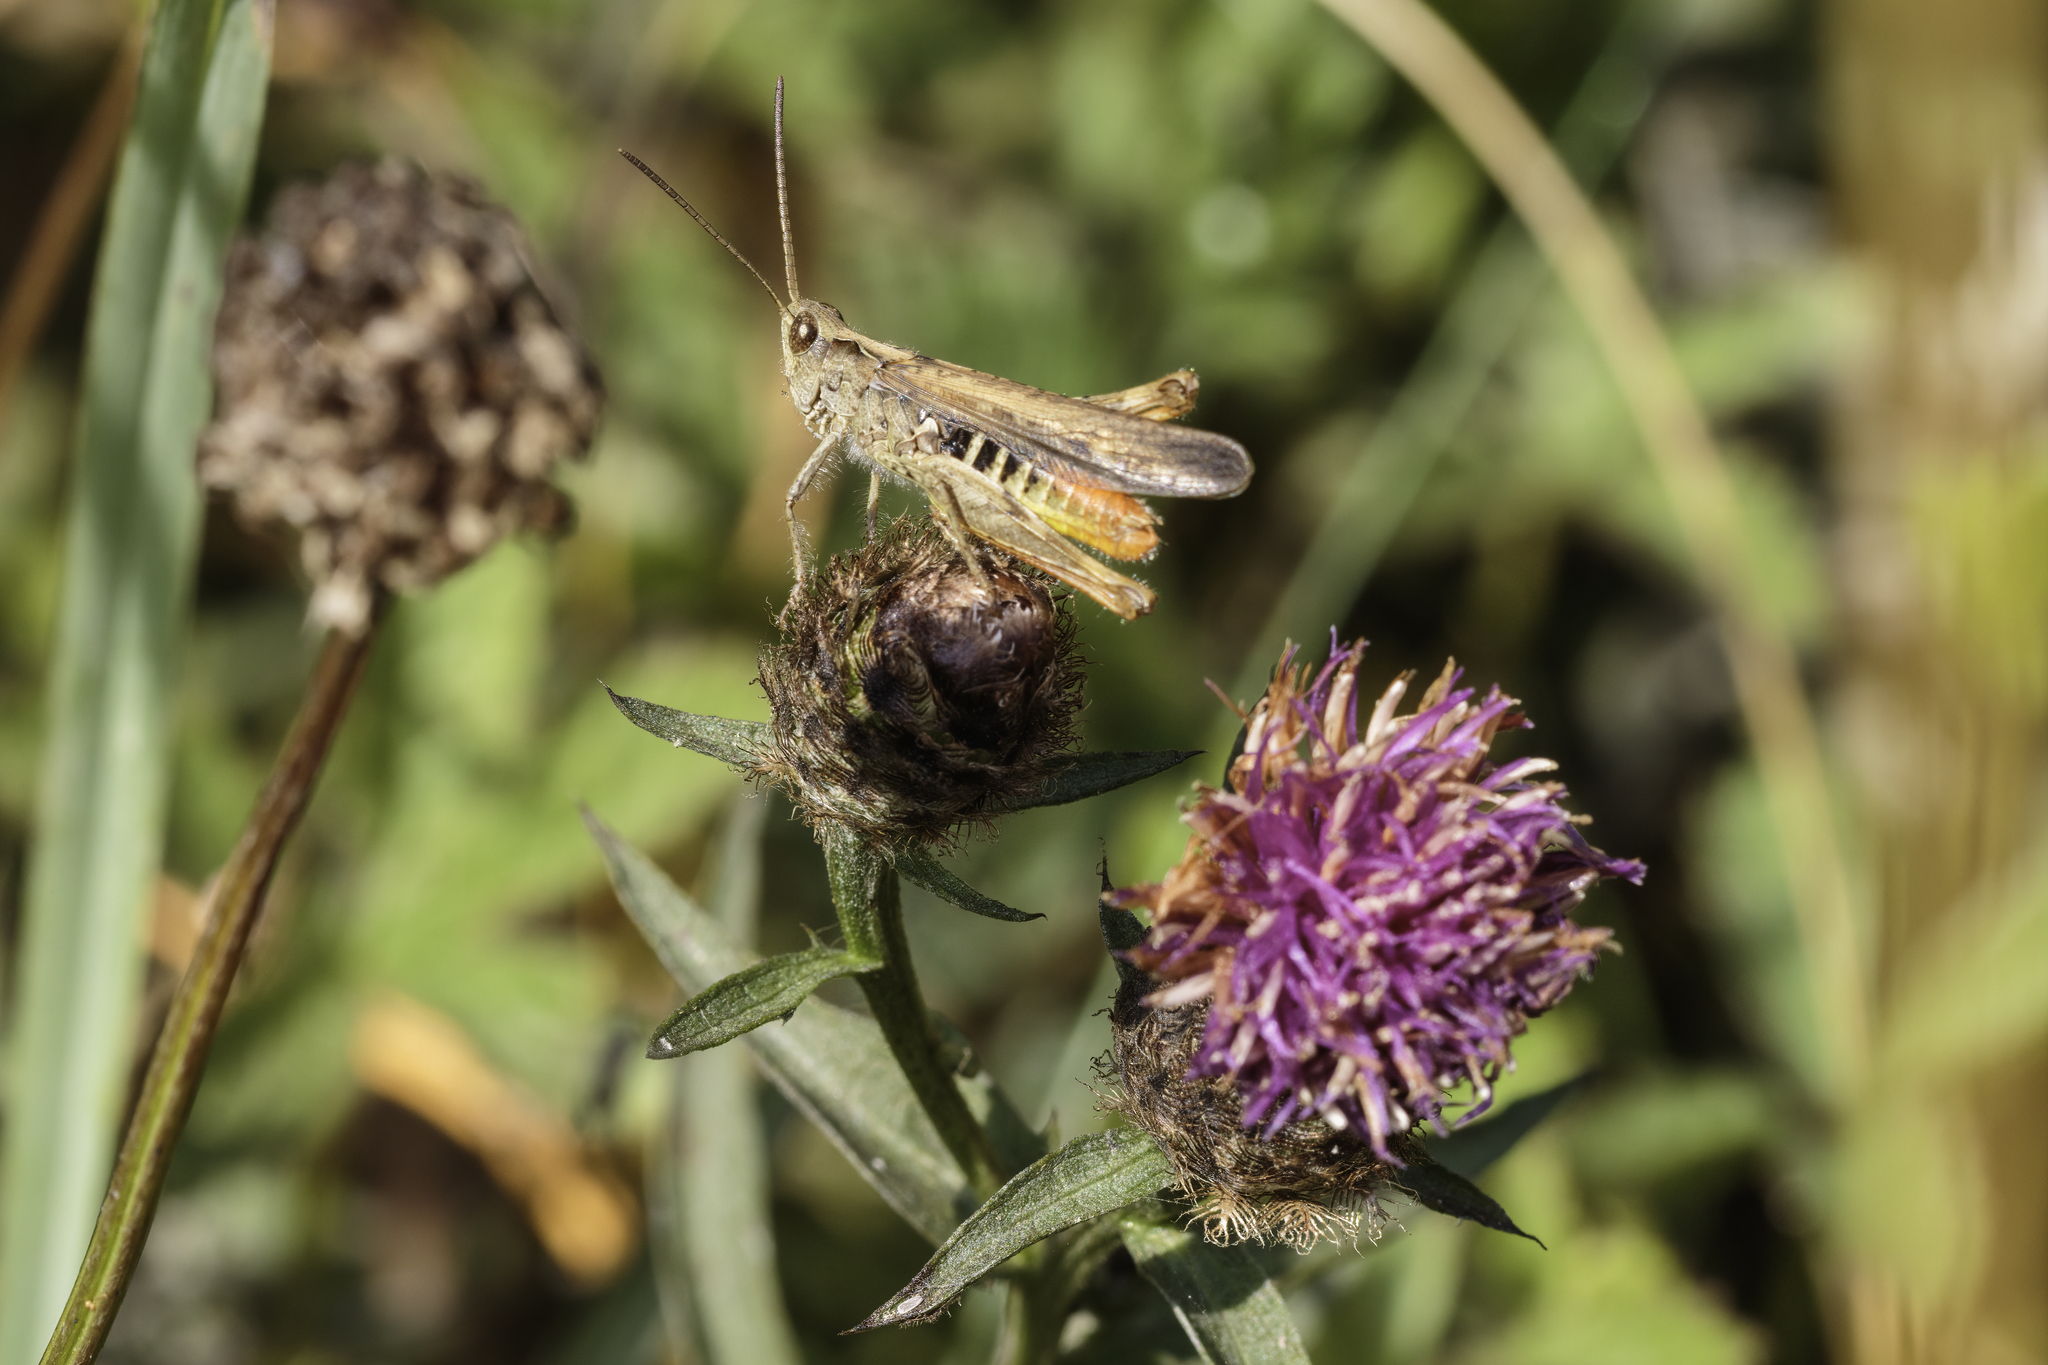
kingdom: Animalia
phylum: Arthropoda
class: Insecta
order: Orthoptera
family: Acrididae
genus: Chorthippus
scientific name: Chorthippus brunneus
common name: Field grasshopper
